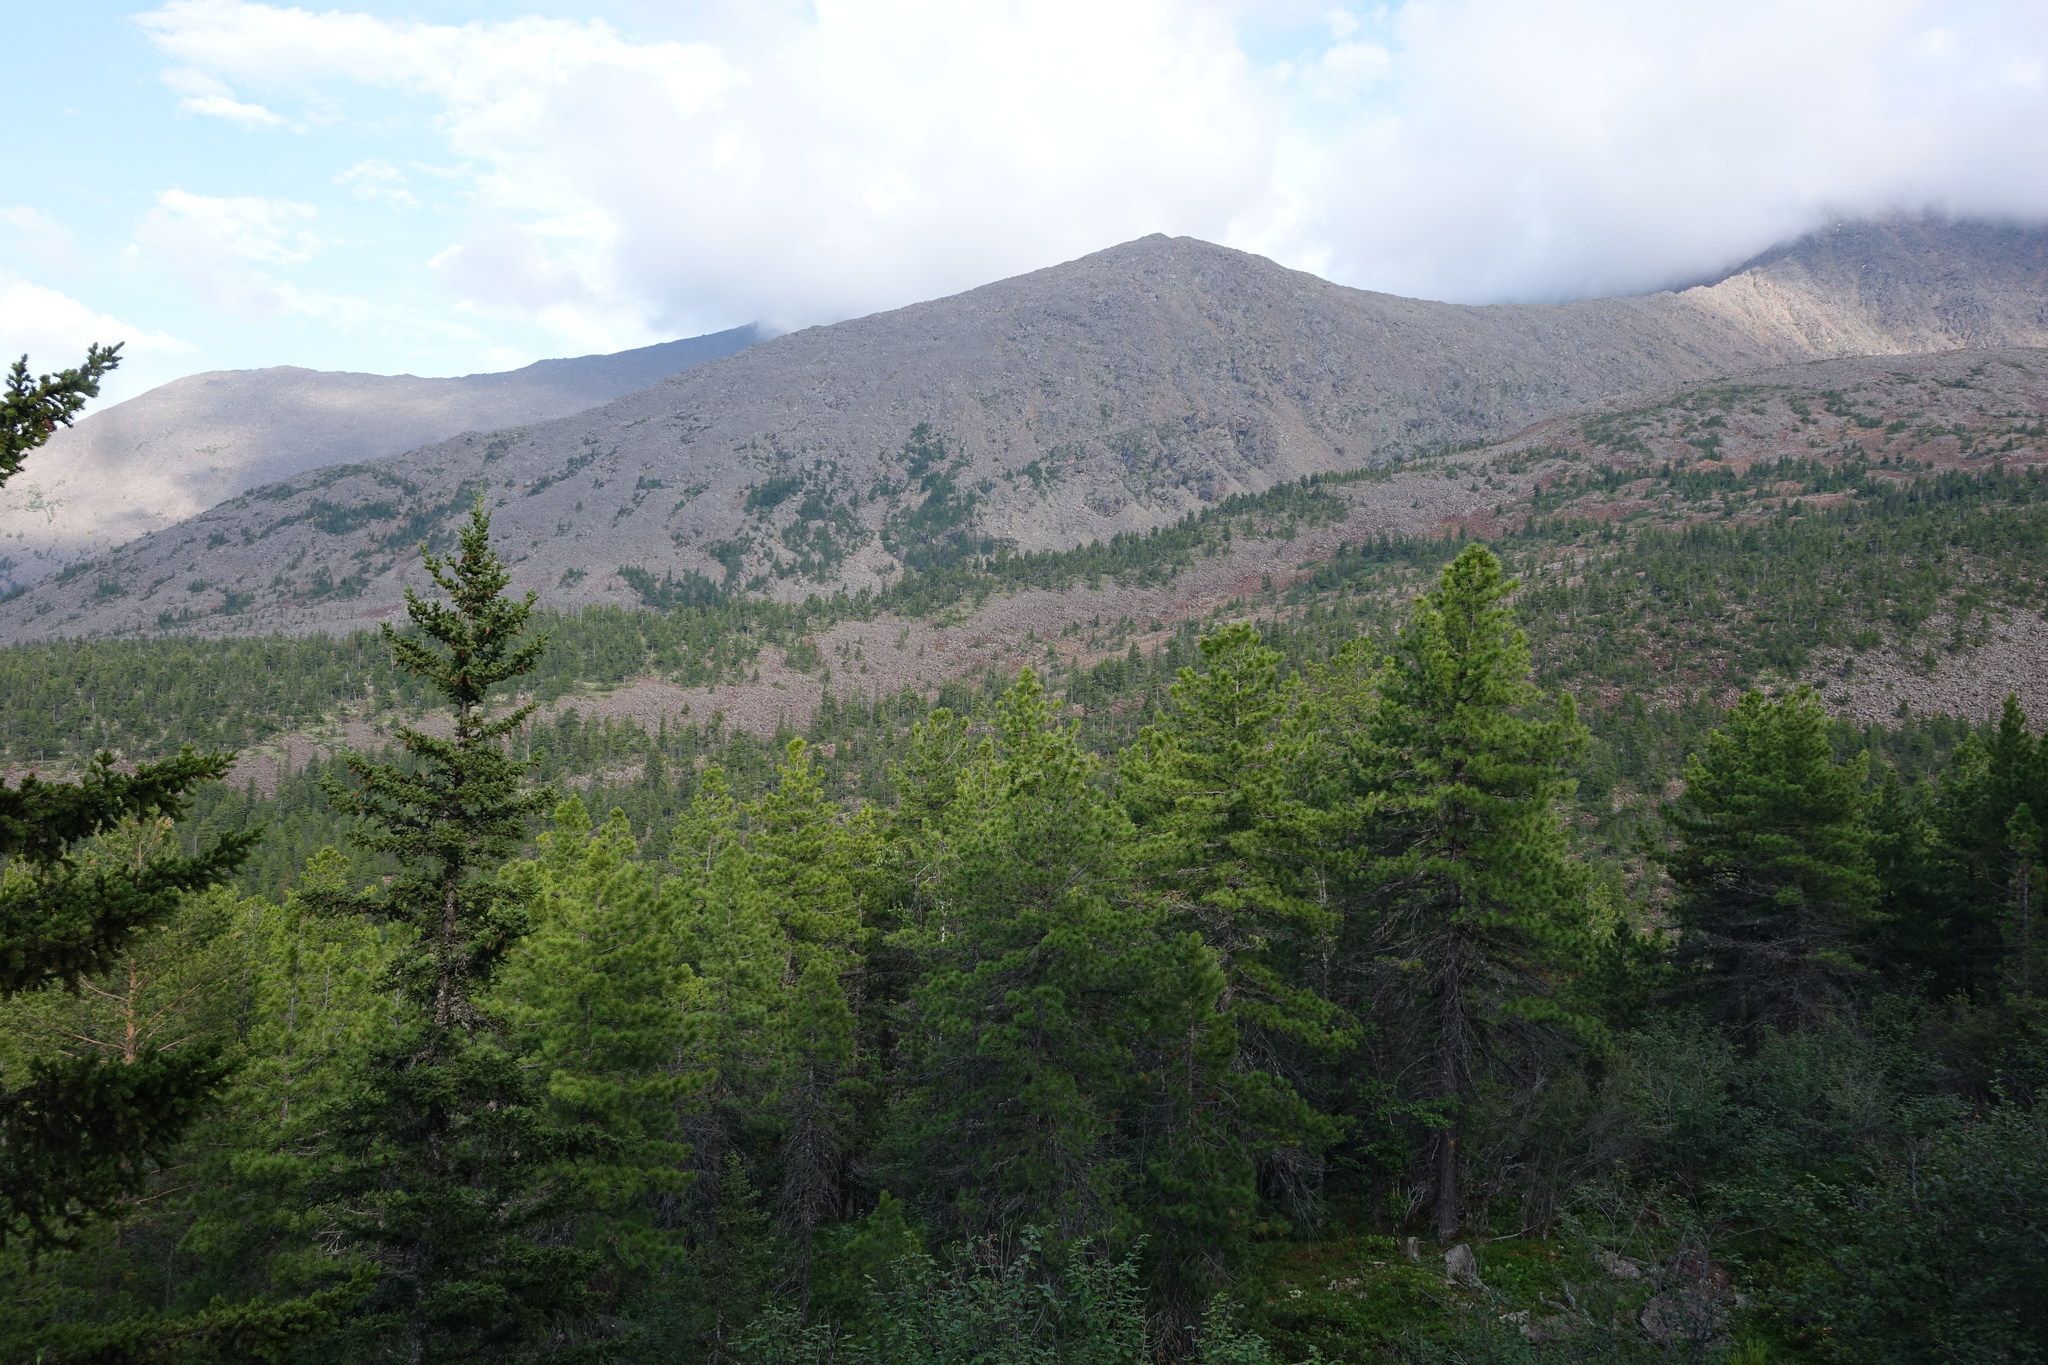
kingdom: Plantae
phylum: Tracheophyta
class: Pinopsida
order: Pinales
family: Pinaceae
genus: Pinus
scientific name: Pinus sibirica
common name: Siberian pine
